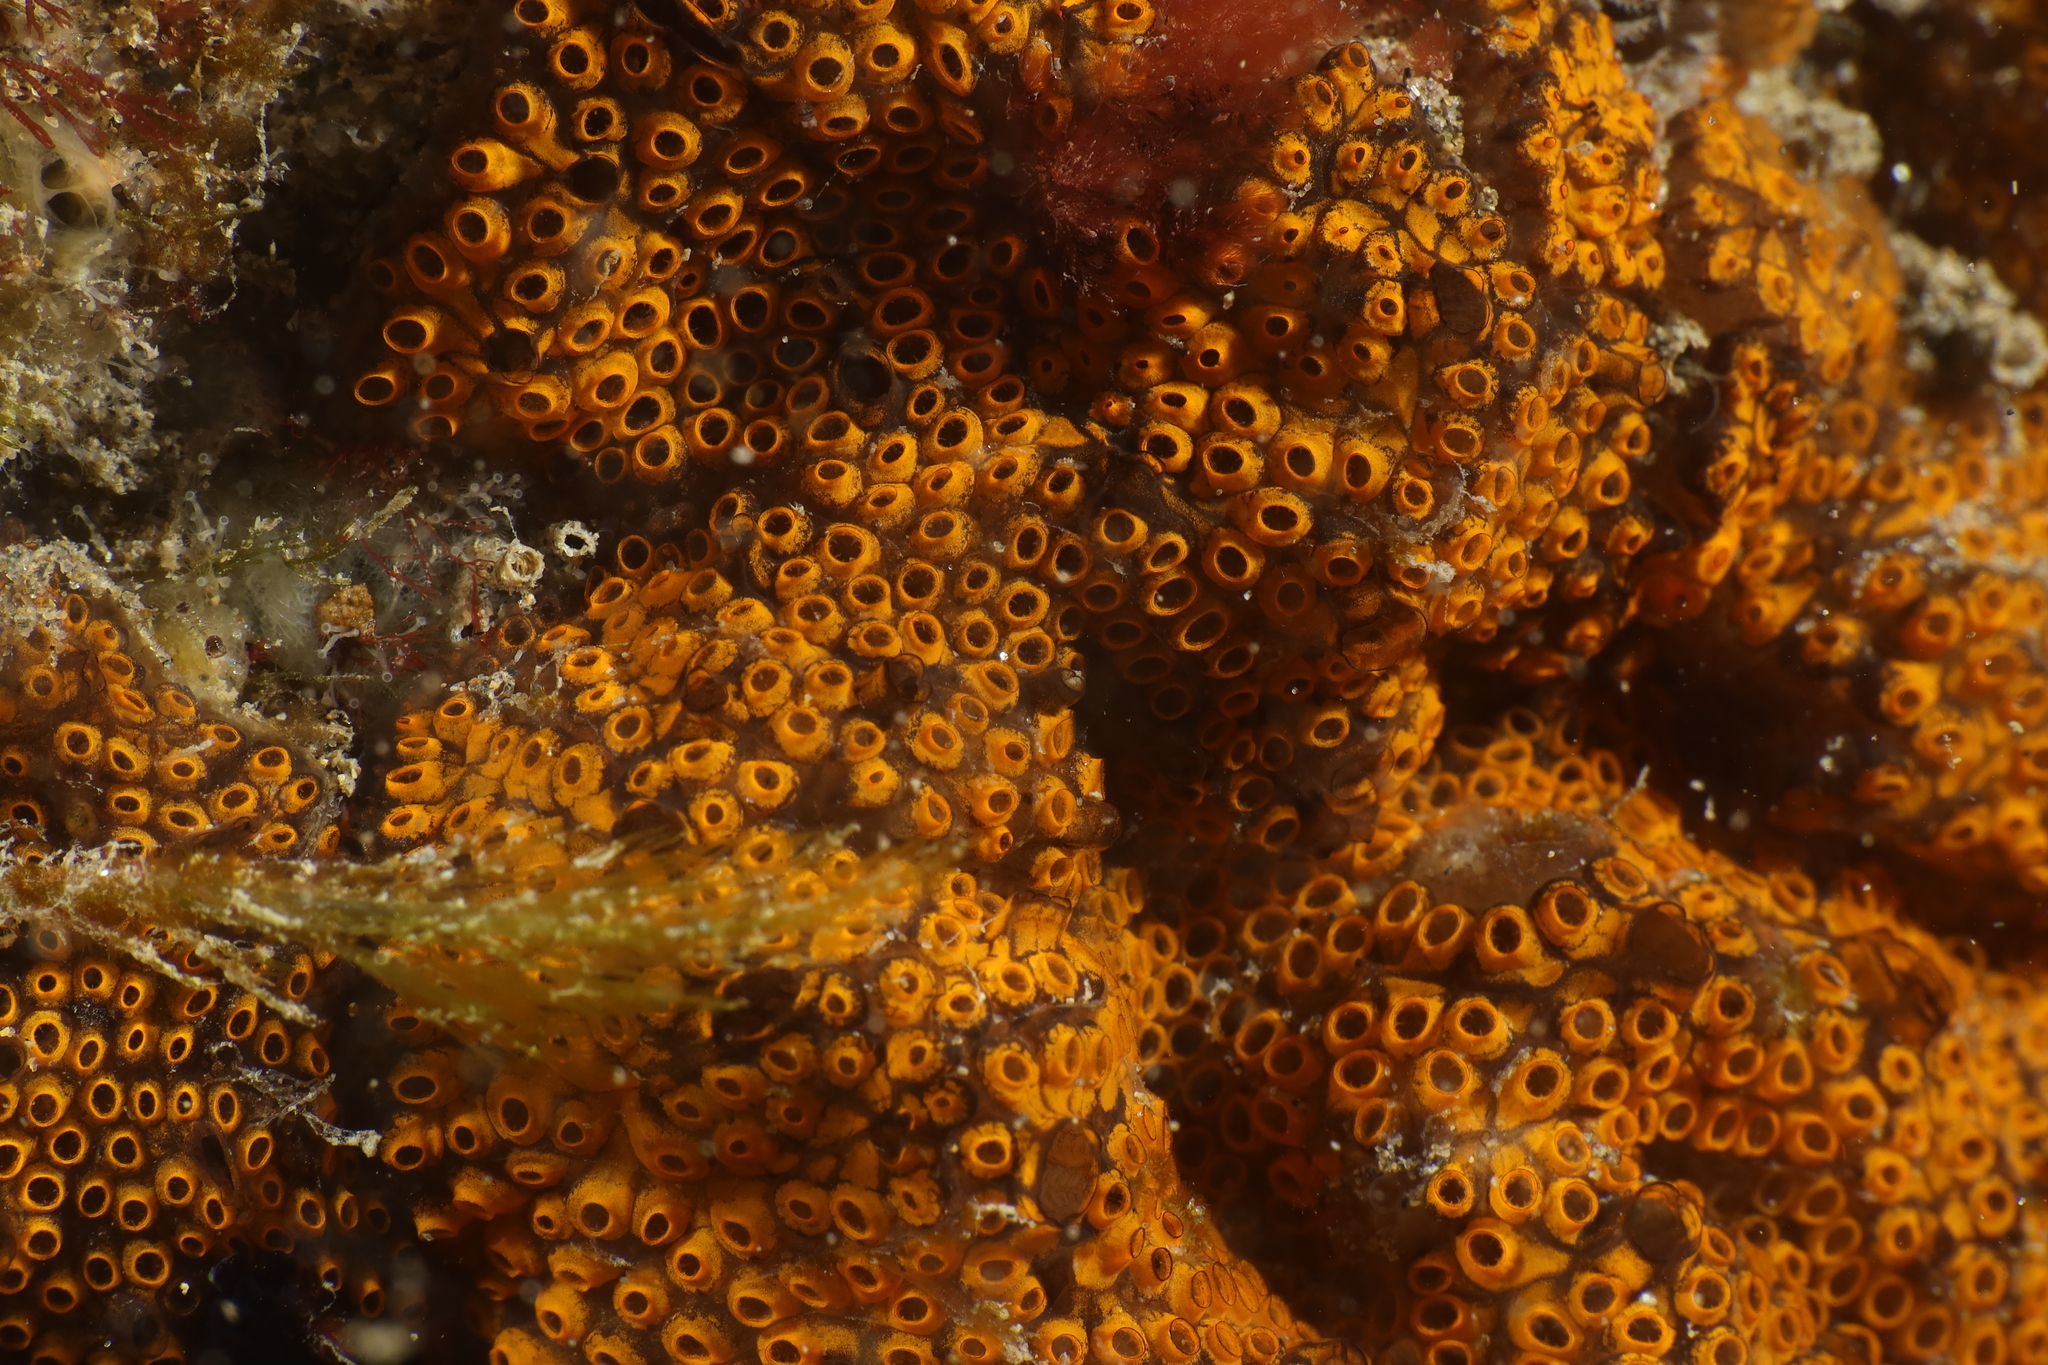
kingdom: Animalia
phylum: Chordata
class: Ascidiacea
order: Stolidobranchia
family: Styelidae
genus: Botrylloides
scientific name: Botrylloides diegensis
